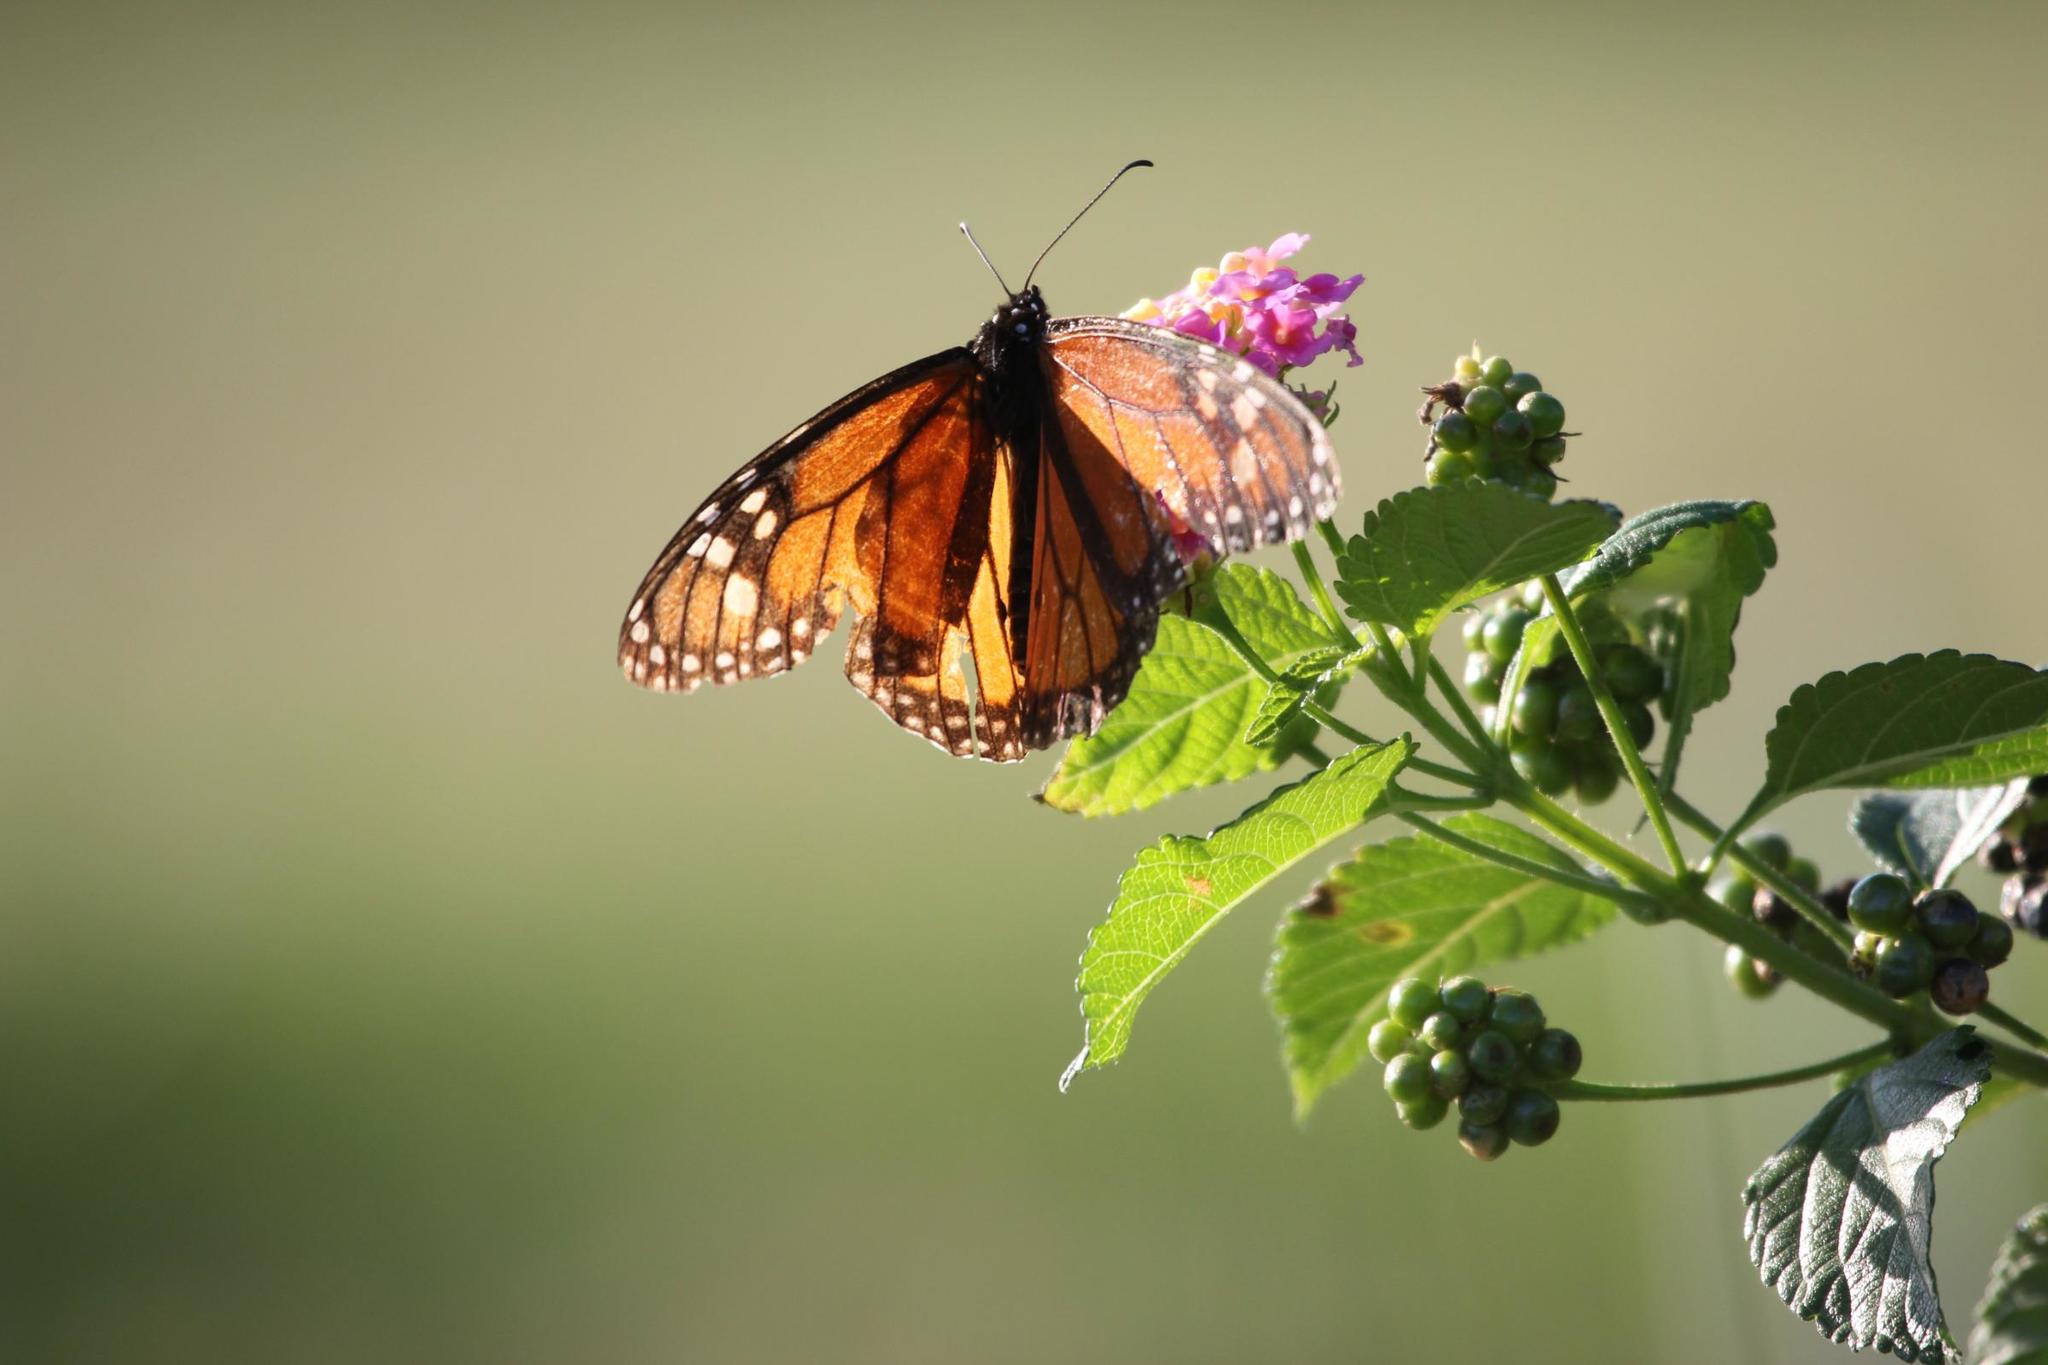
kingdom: Animalia
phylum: Arthropoda
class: Insecta
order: Lepidoptera
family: Nymphalidae
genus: Danaus
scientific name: Danaus plexippus
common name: Monarch
